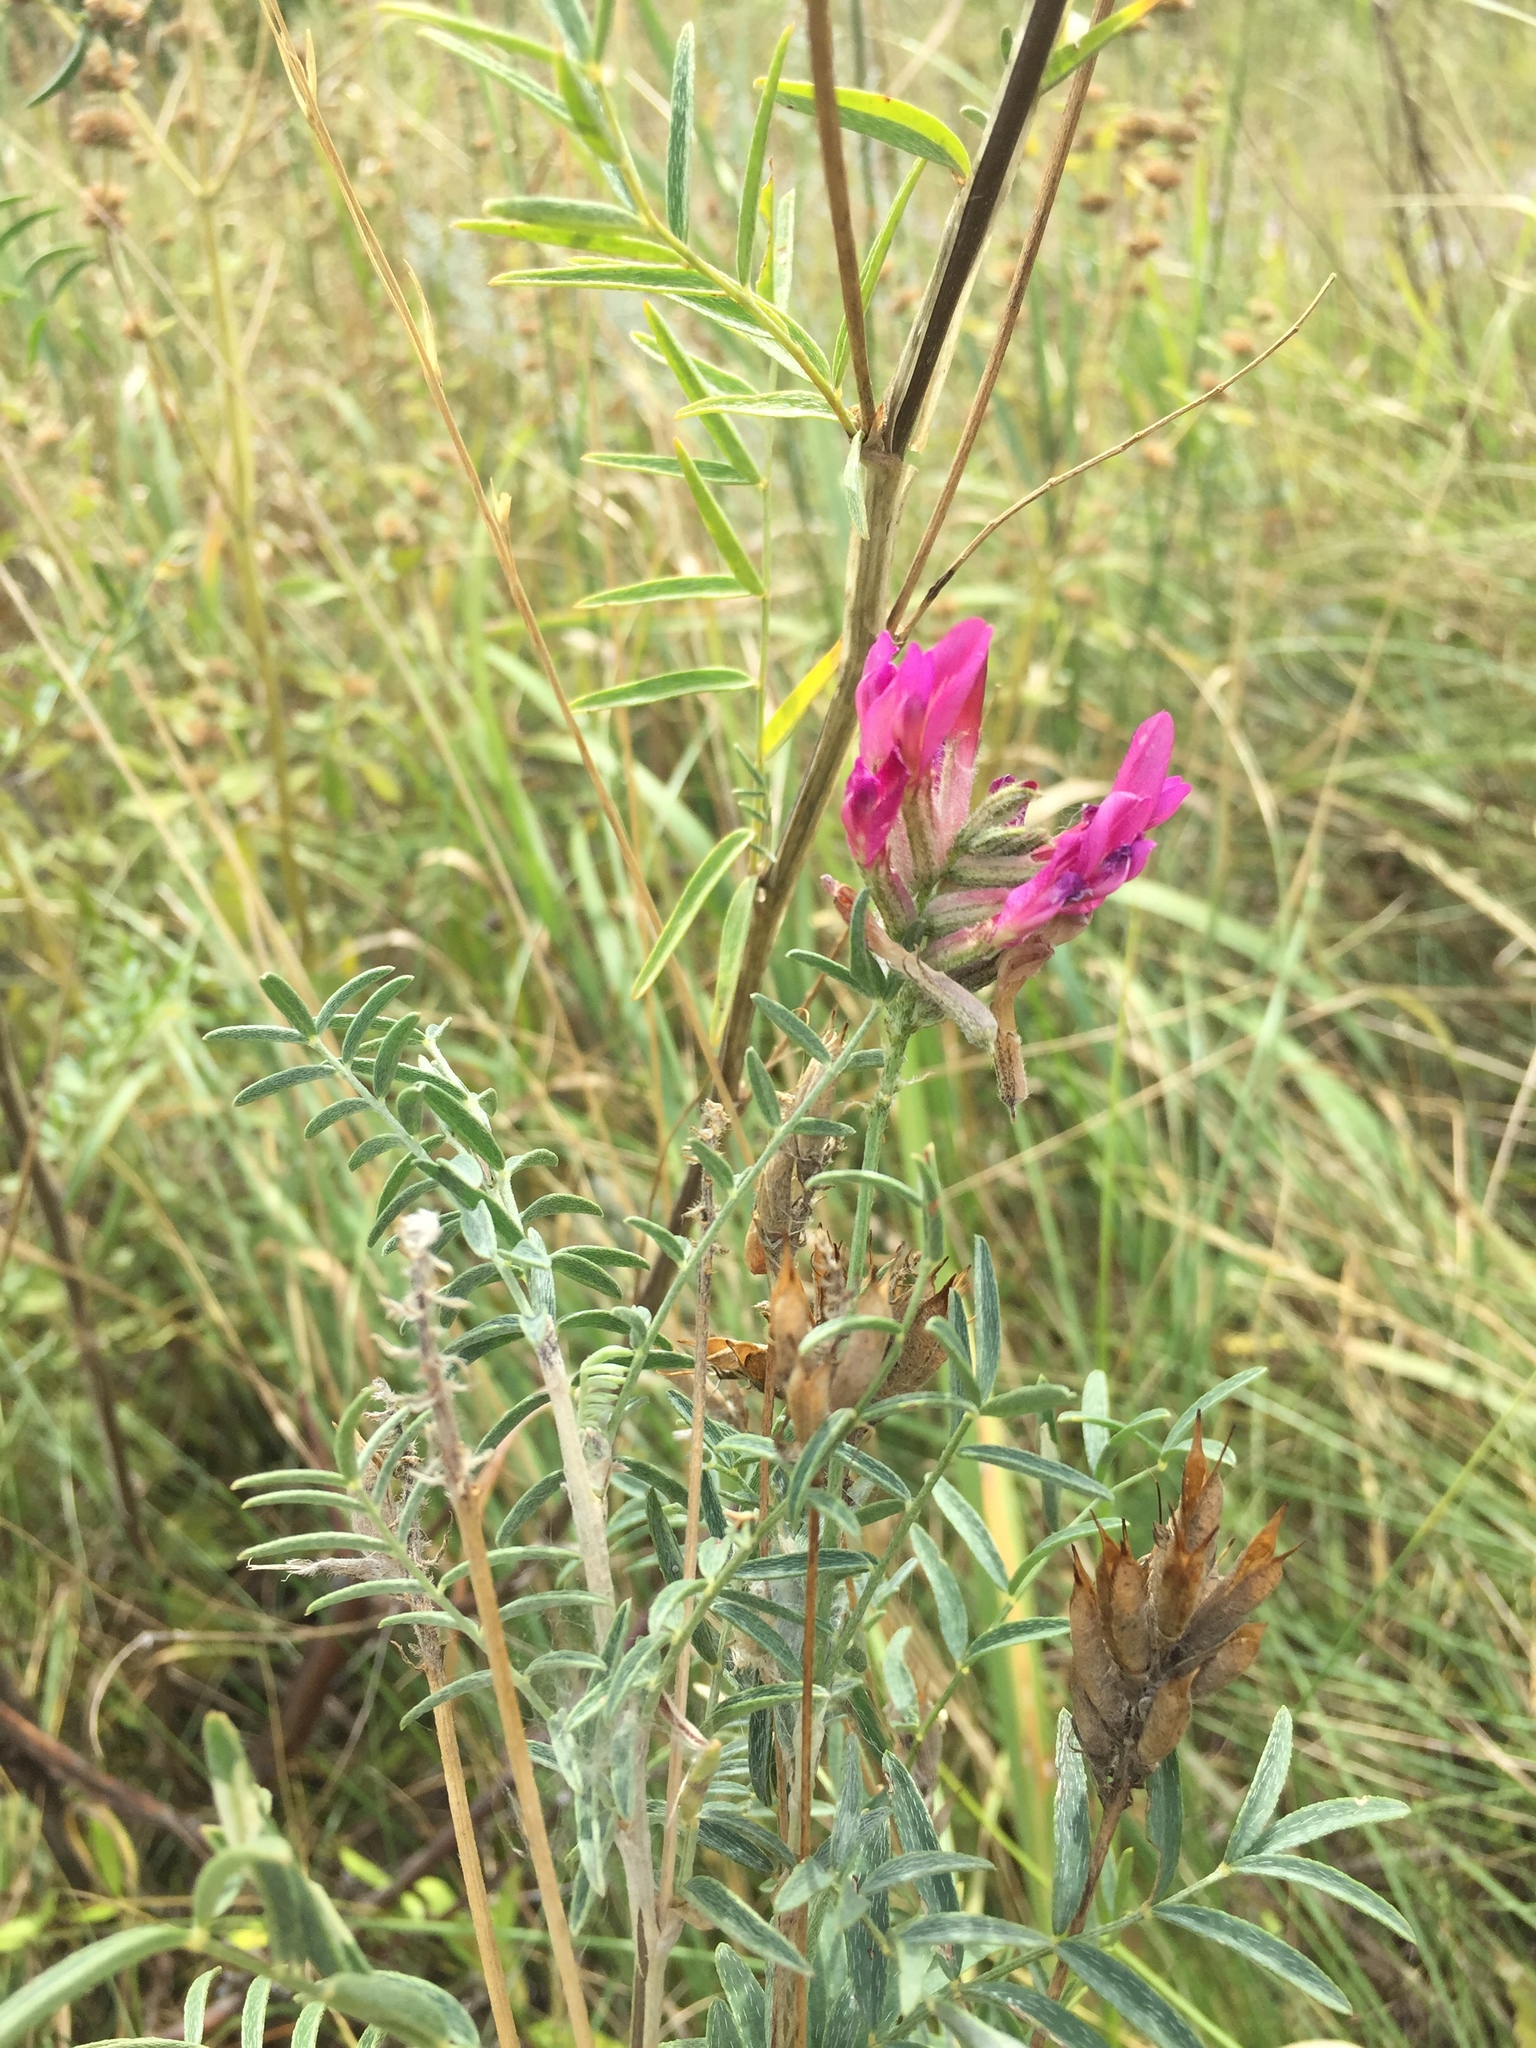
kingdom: Plantae
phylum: Tracheophyta
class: Magnoliopsida
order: Fabales
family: Fabaceae
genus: Astragalus
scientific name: Astragalus cornutus
